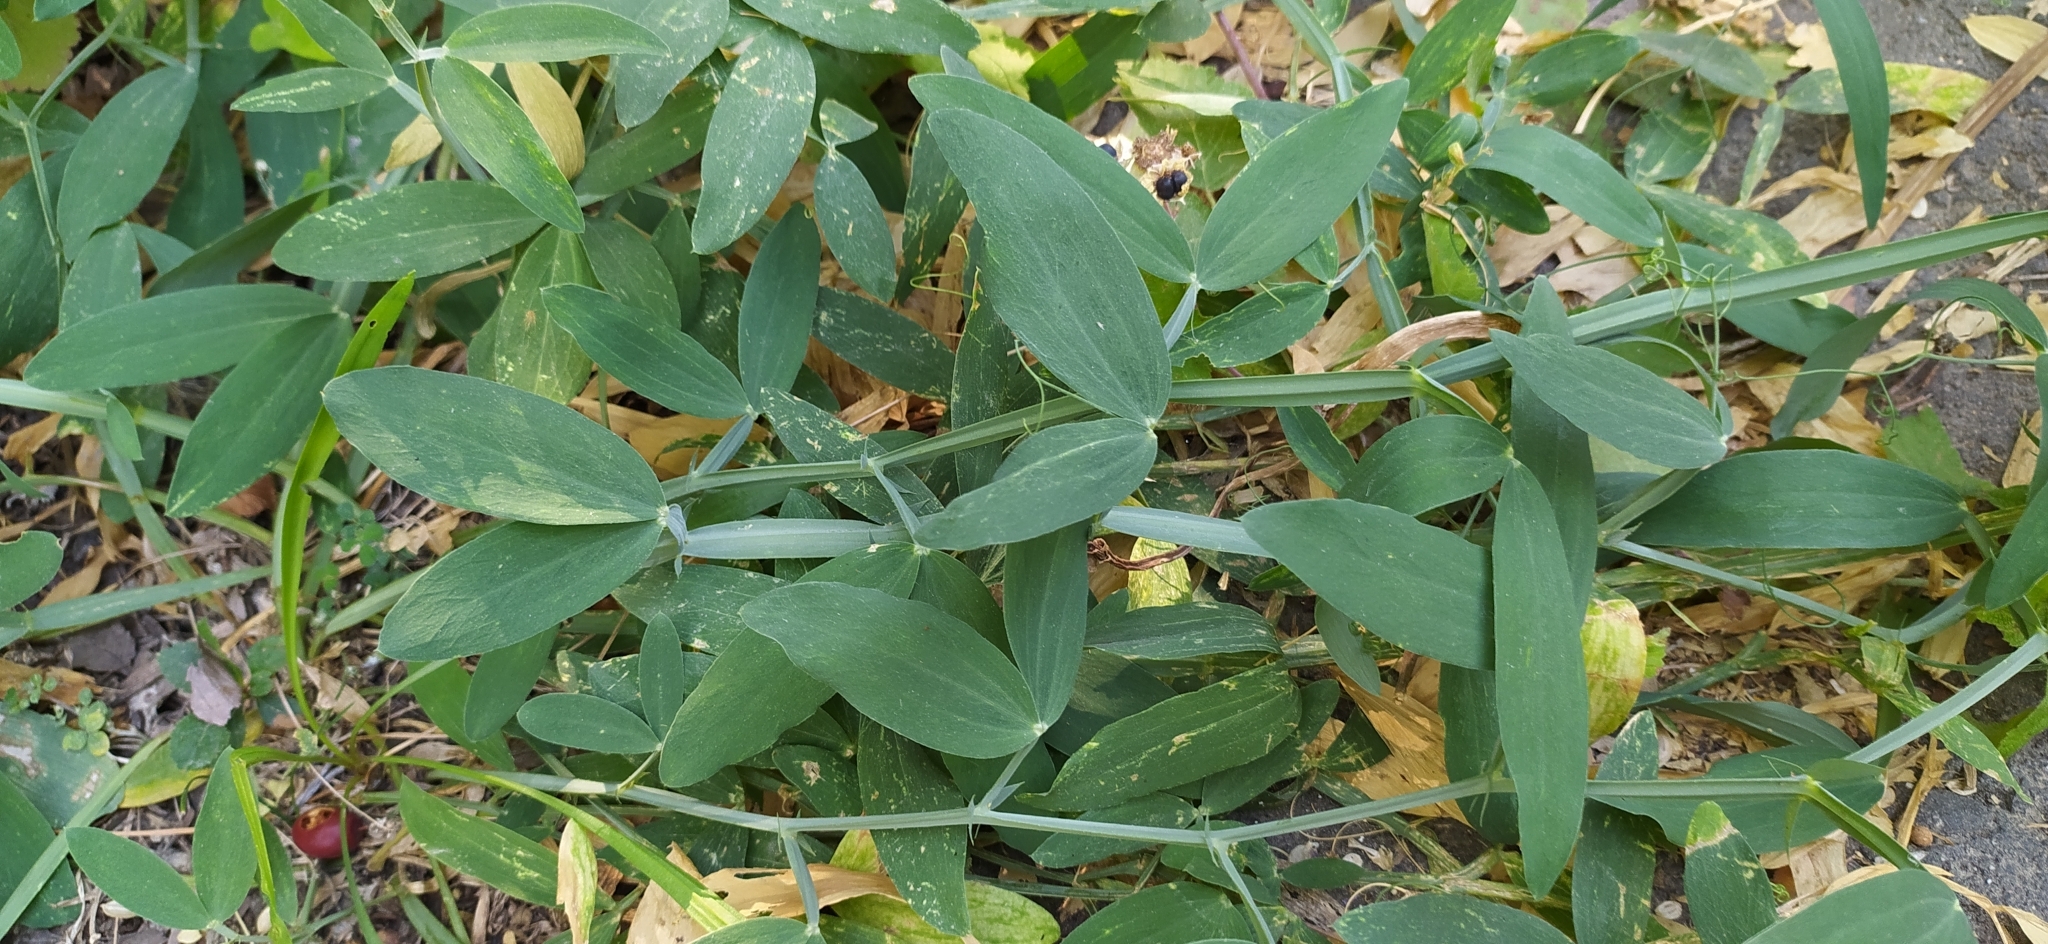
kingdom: Plantae
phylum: Tracheophyta
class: Magnoliopsida
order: Fabales
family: Fabaceae
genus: Lathyrus
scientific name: Lathyrus latifolius
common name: Perennial pea
